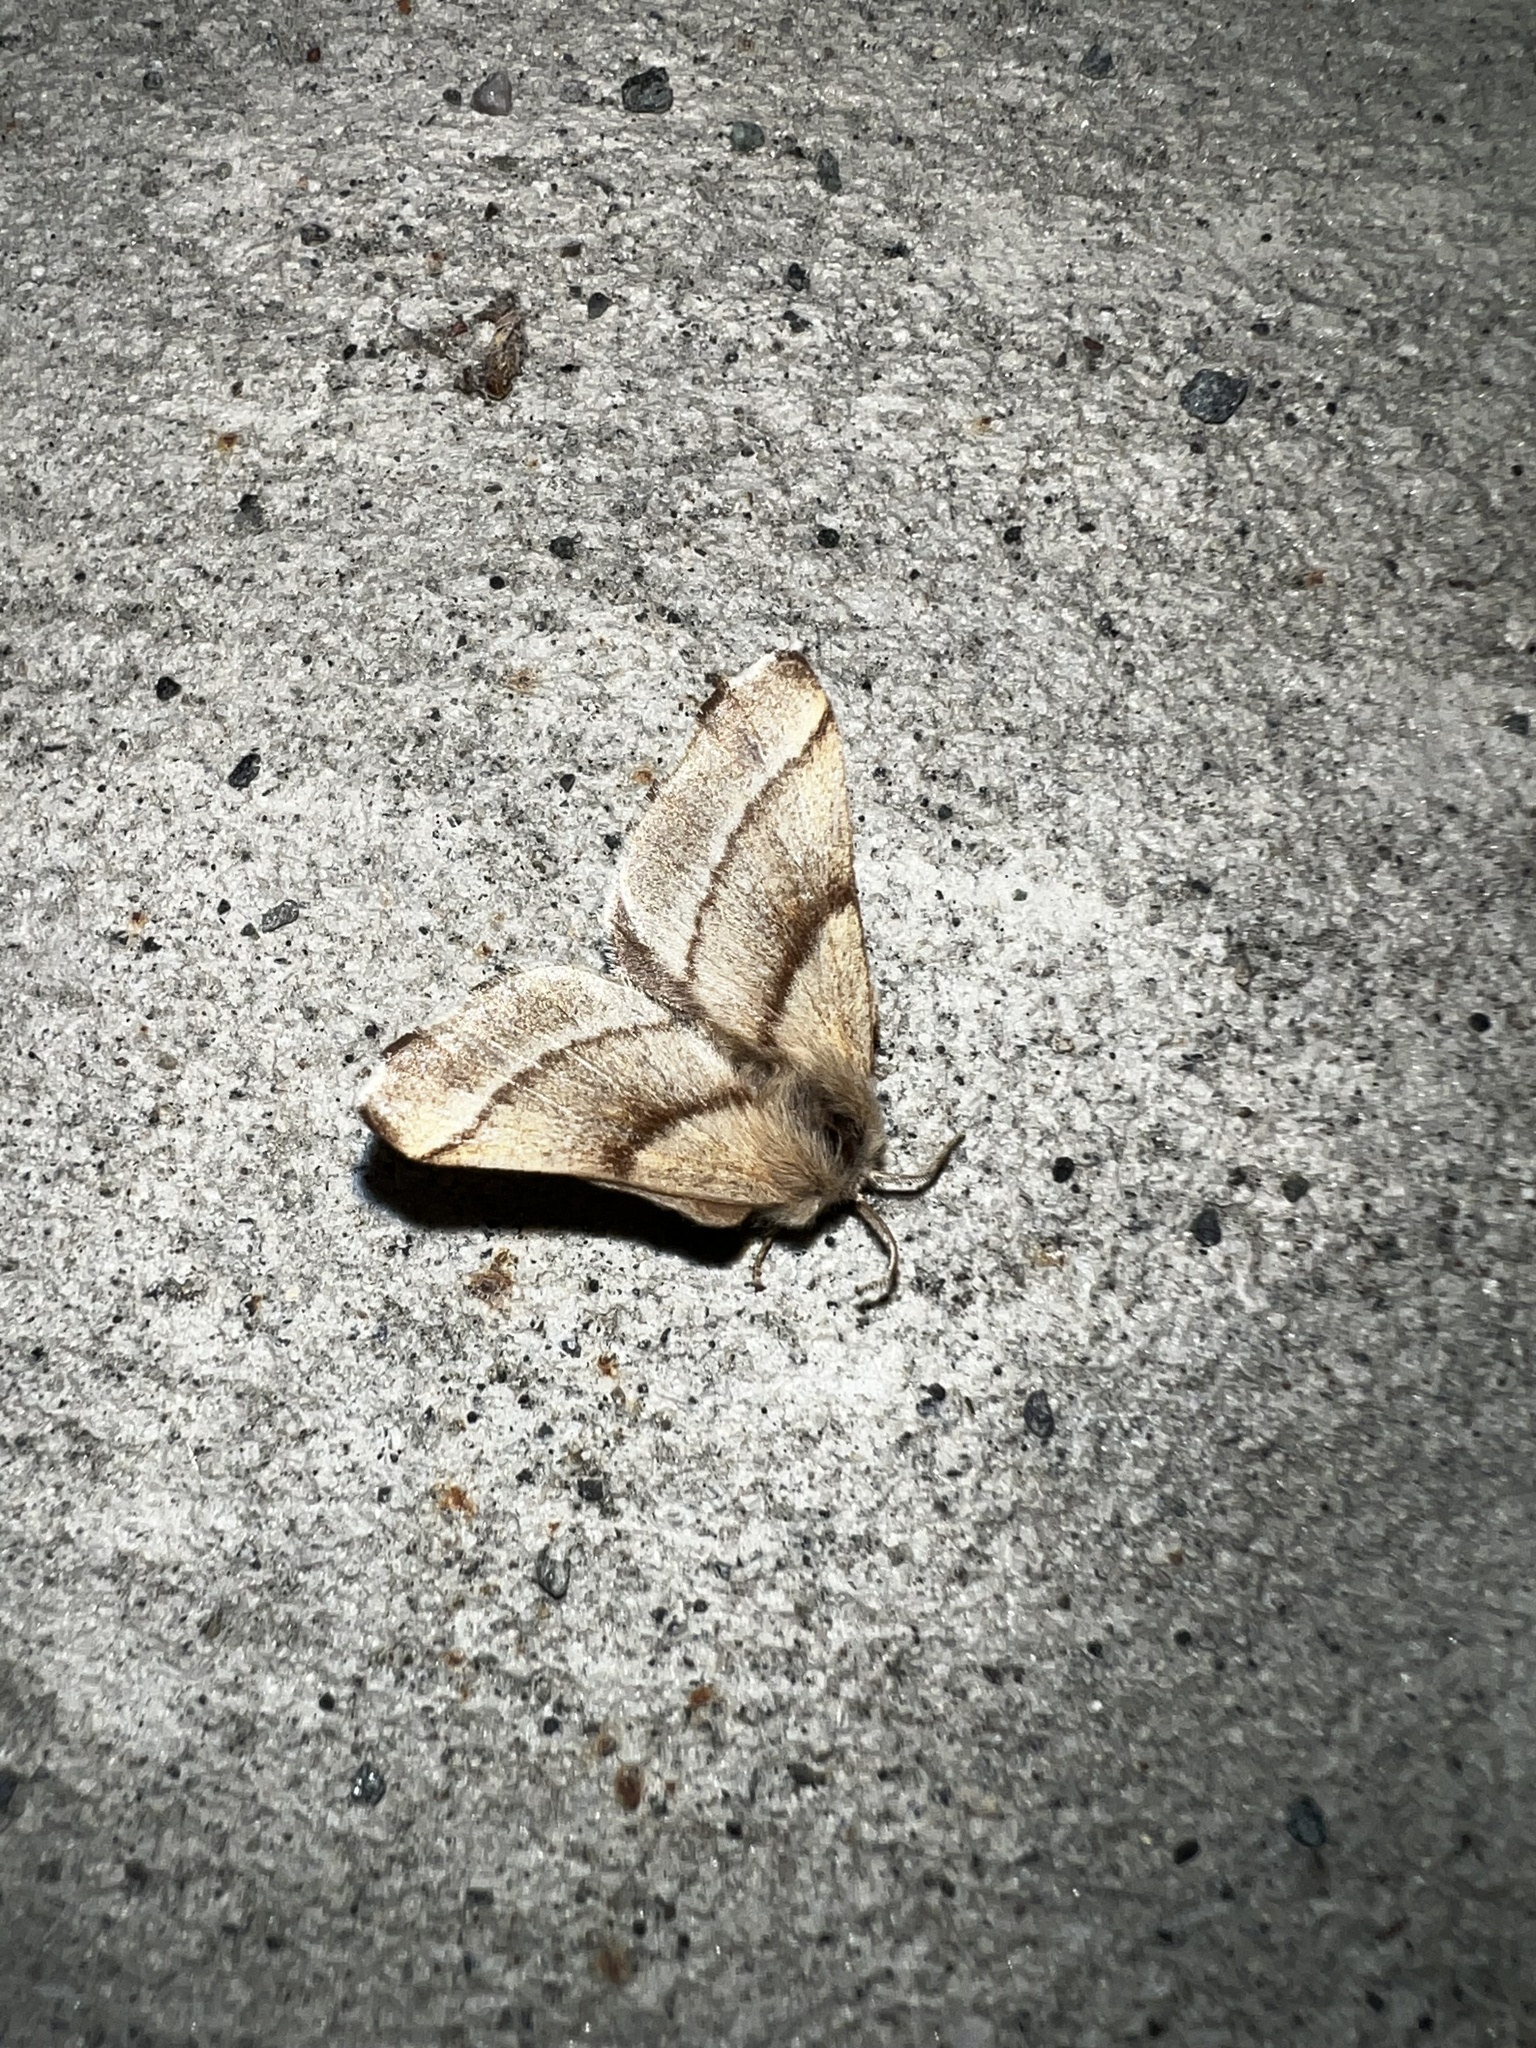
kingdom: Animalia
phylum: Arthropoda
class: Insecta
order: Lepidoptera
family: Lasiocampidae
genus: Malacosoma
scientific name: Malacosoma californica
